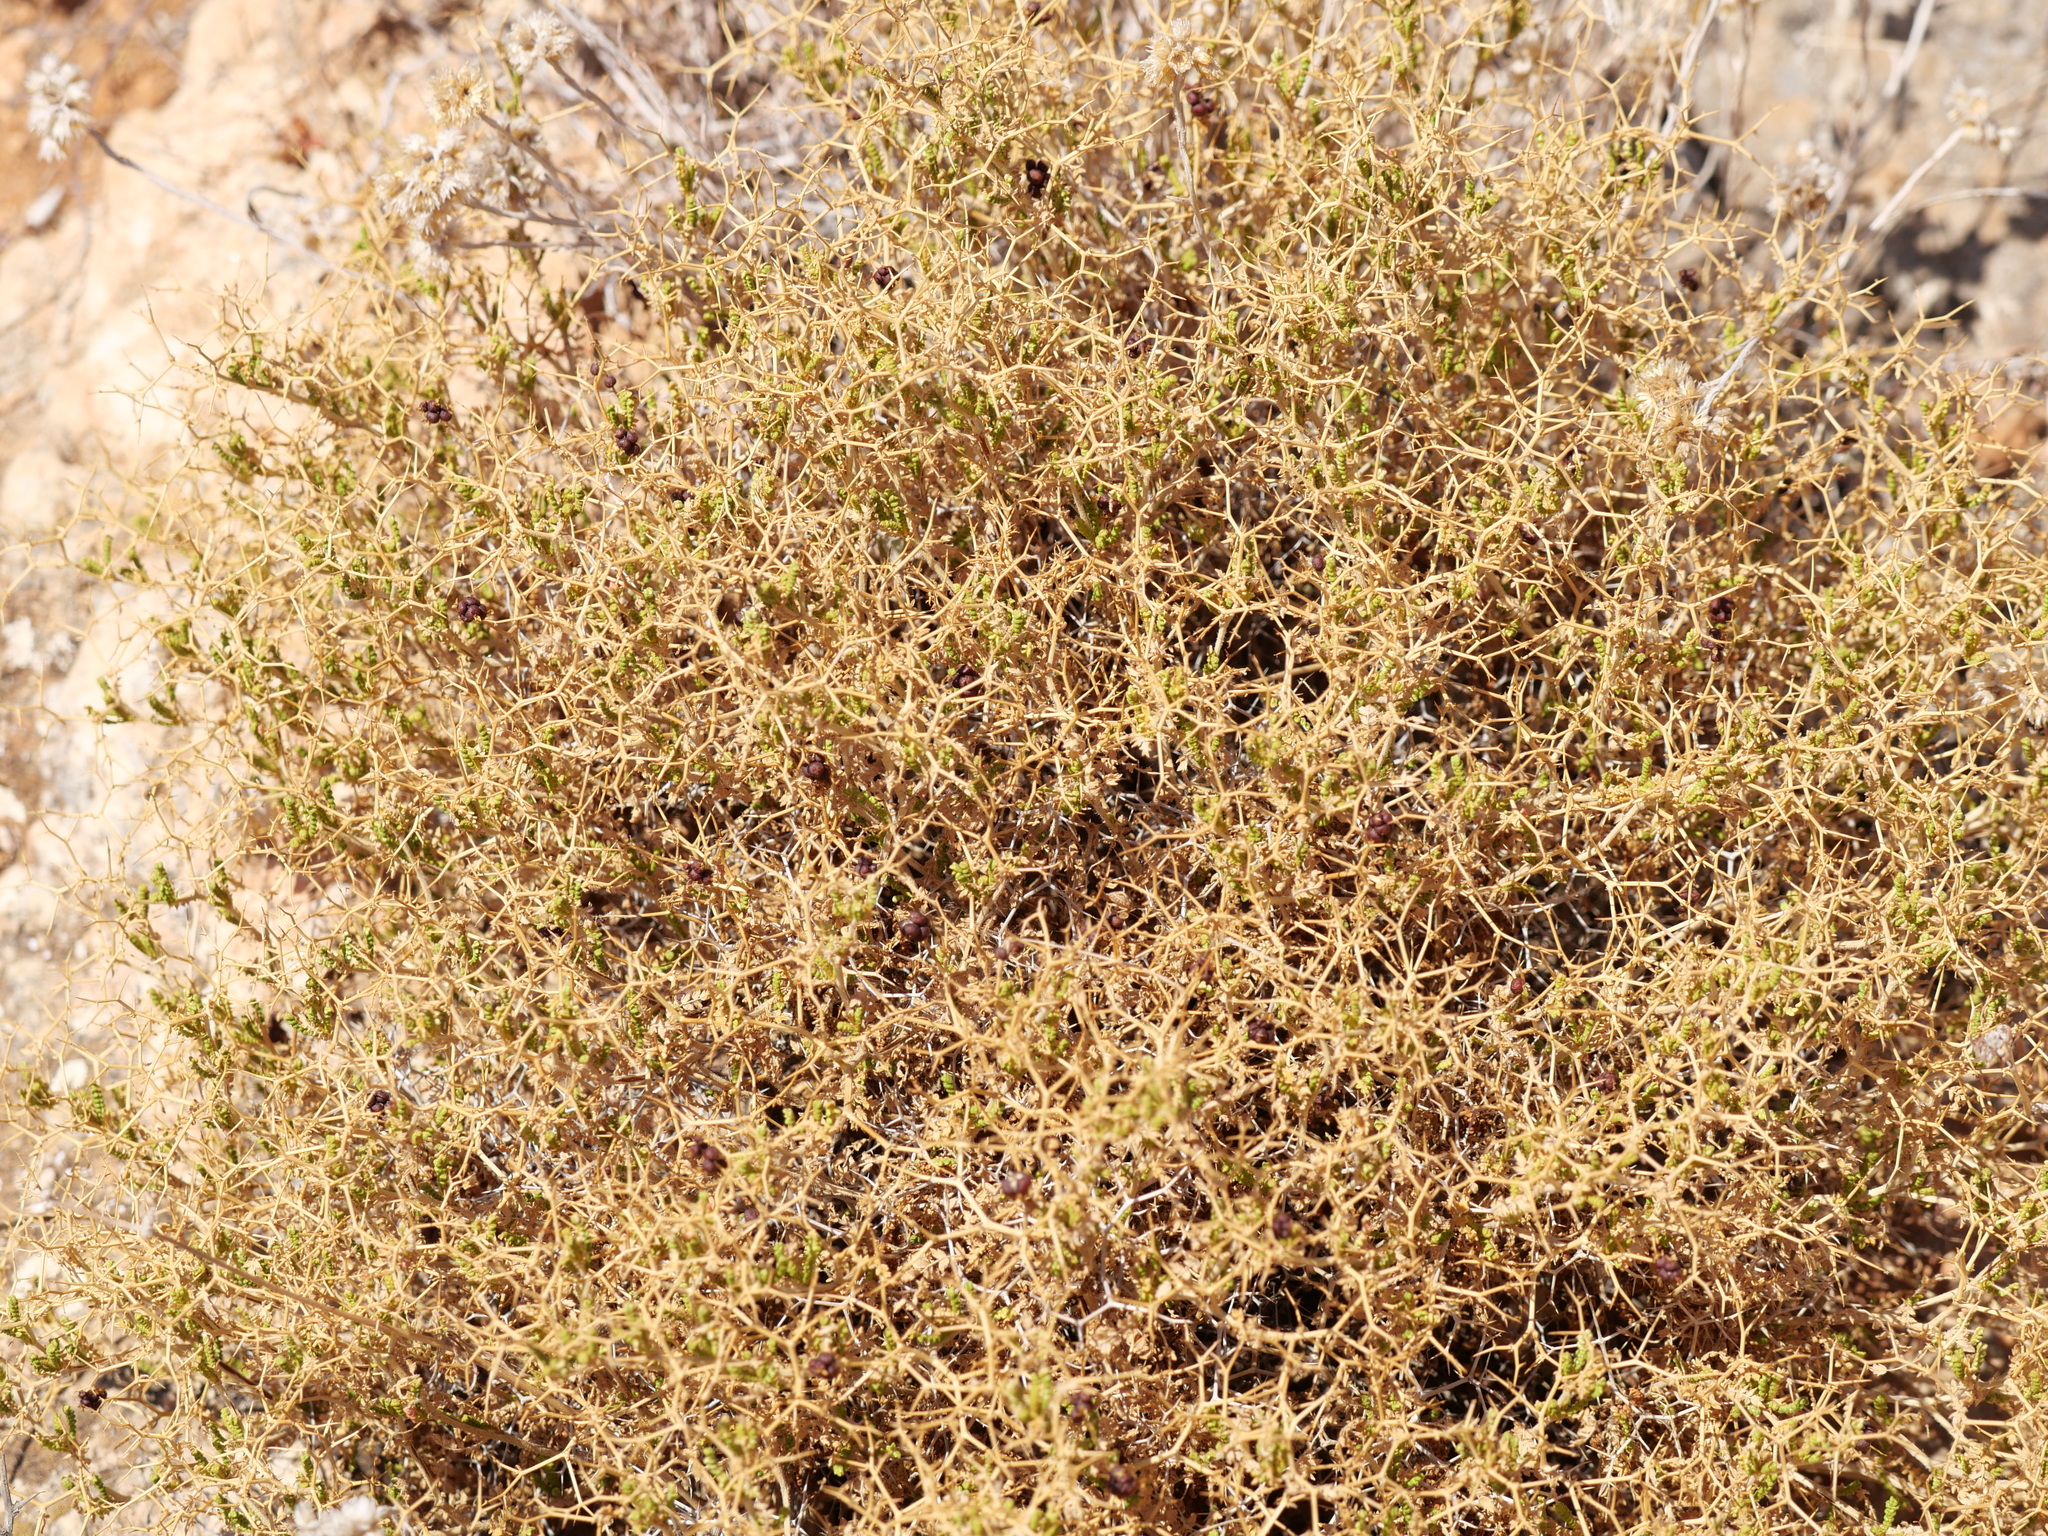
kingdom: Plantae
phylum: Tracheophyta
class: Magnoliopsida
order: Rosales
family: Rosaceae
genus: Sarcopoterium
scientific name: Sarcopoterium spinosum
